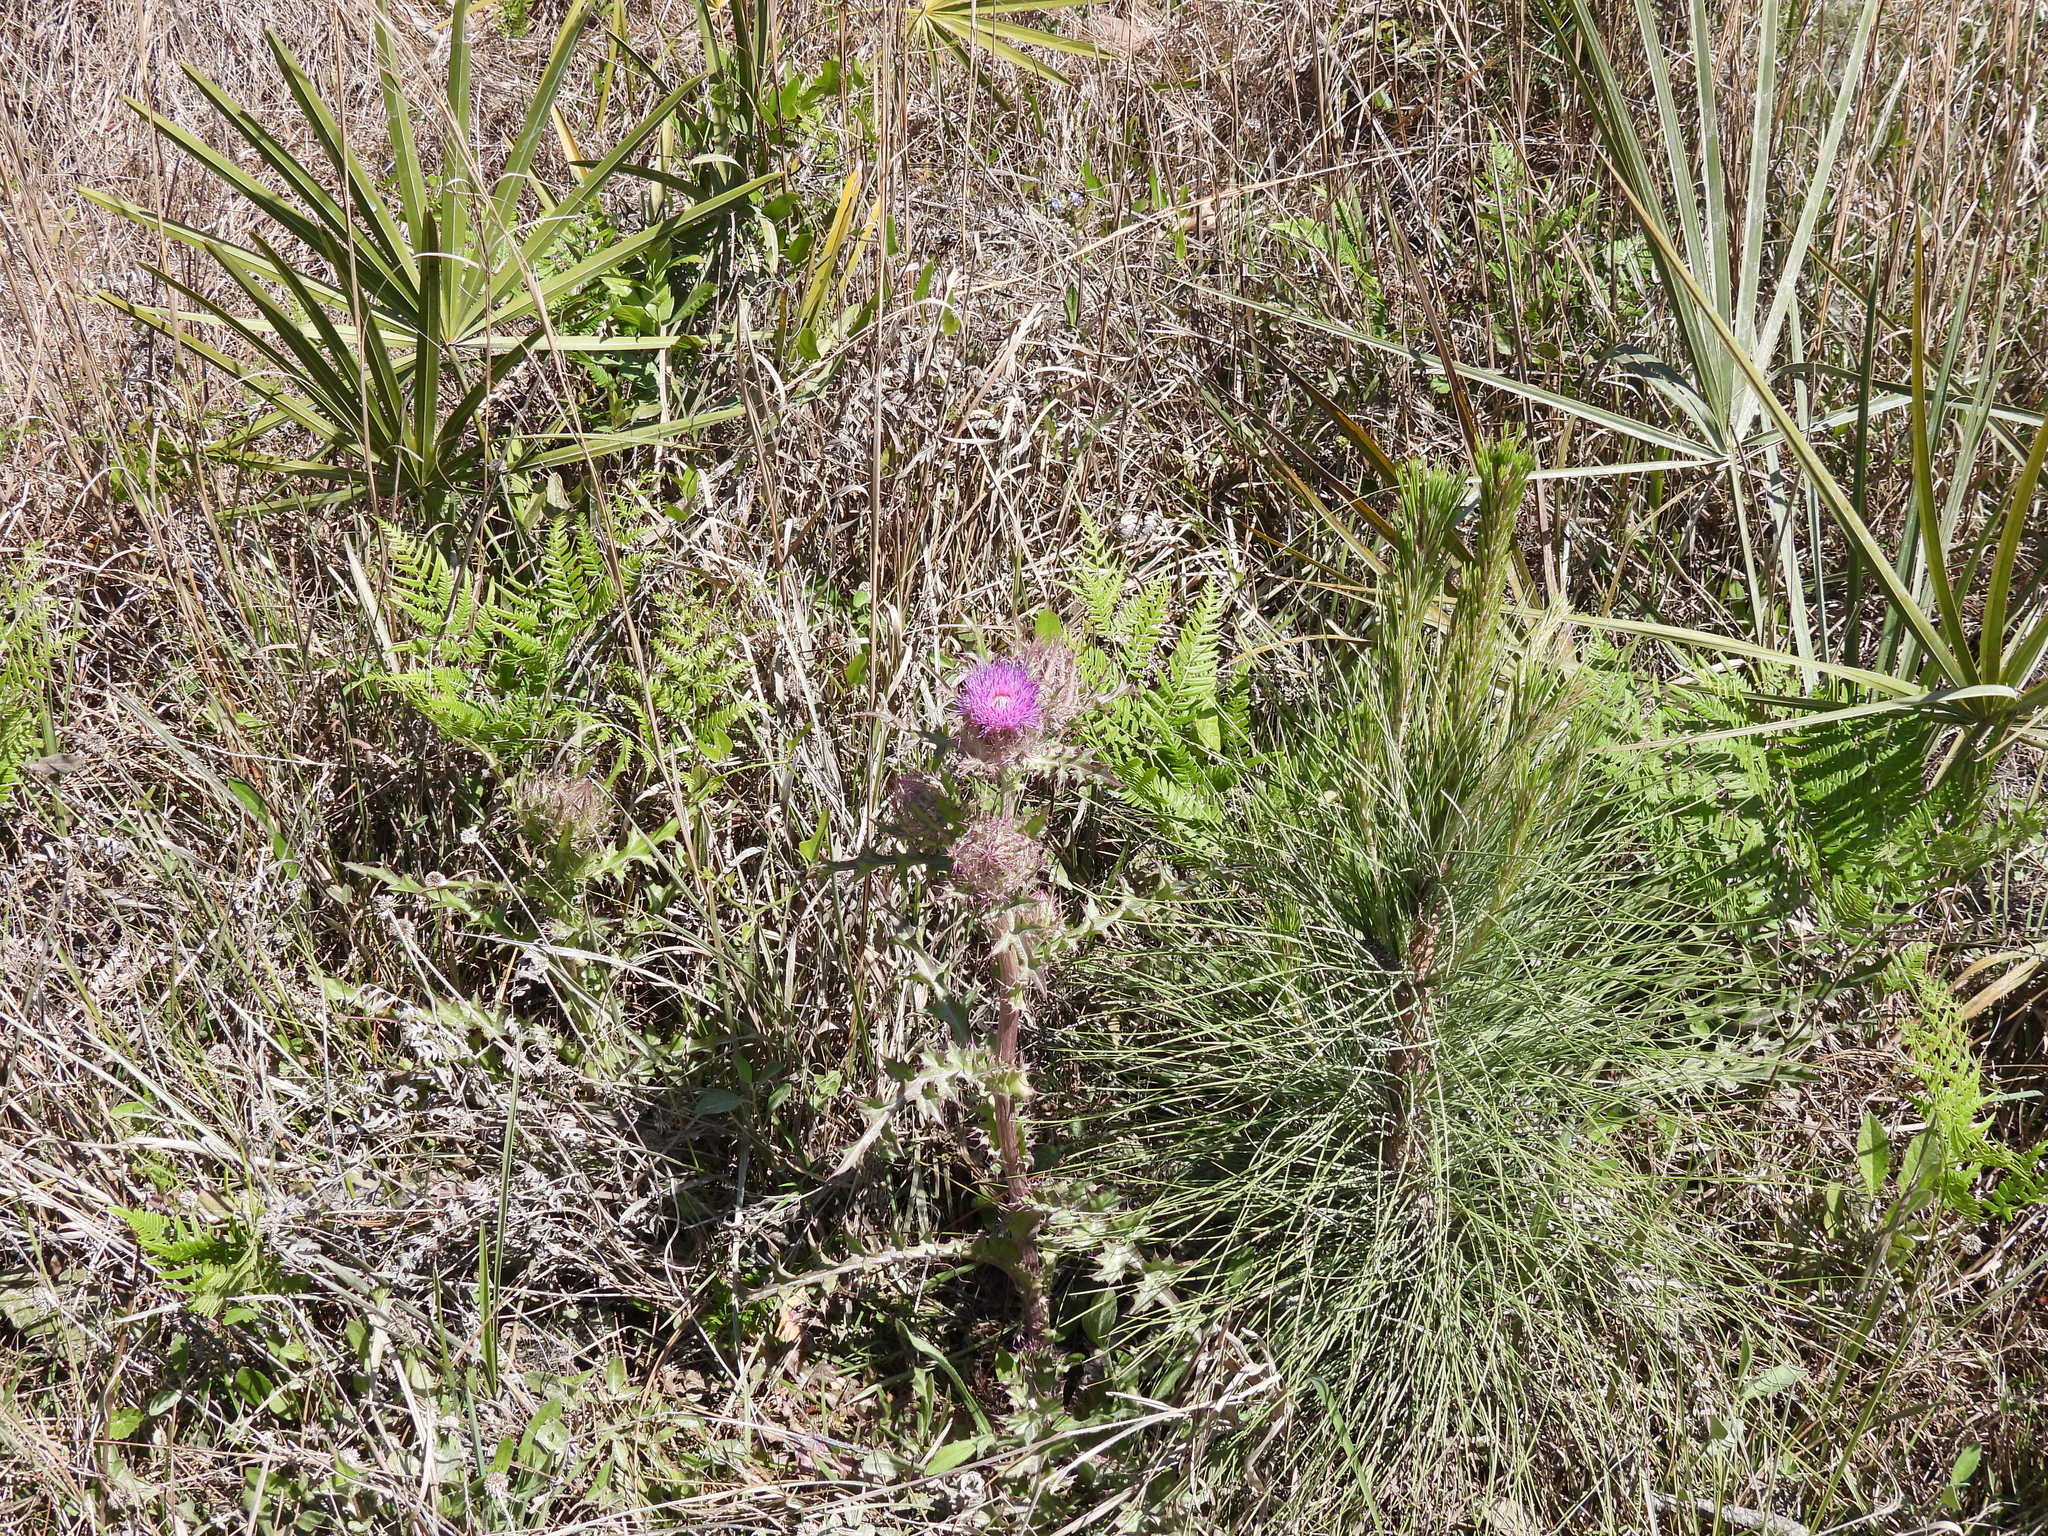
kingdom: Plantae
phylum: Tracheophyta
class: Magnoliopsida
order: Asterales
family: Asteraceae
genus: Cirsium
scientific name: Cirsium horridulum
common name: Bristly thistle
